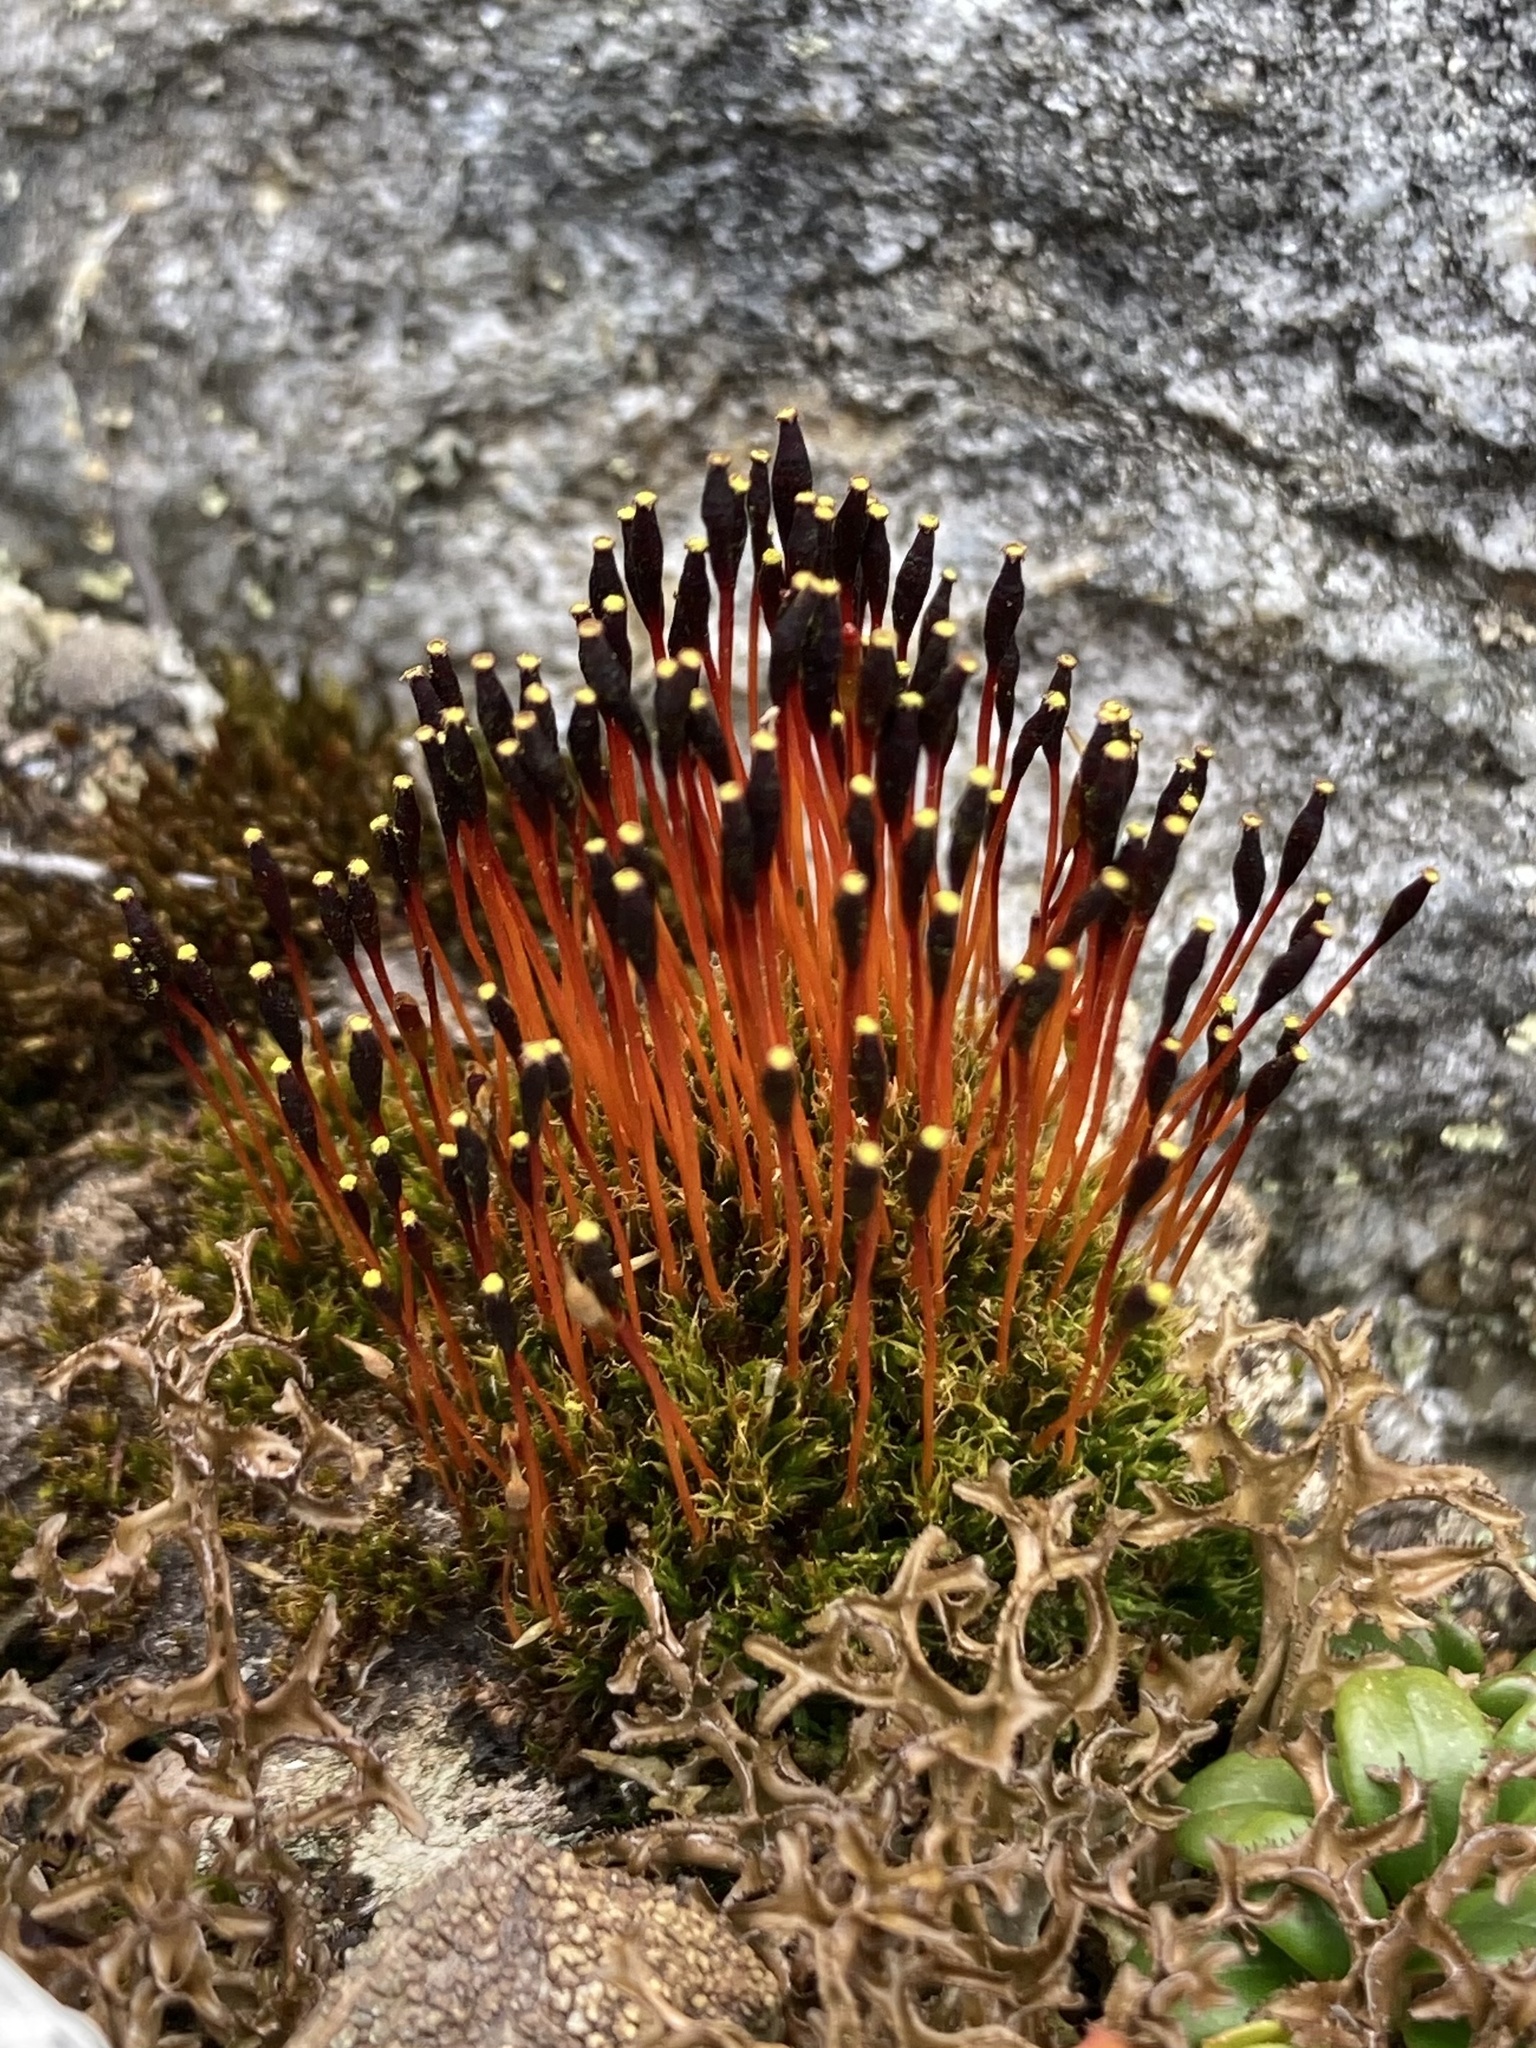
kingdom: Plantae
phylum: Bryophyta
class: Bryopsida
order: Splachnales
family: Splachnaceae
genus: Tetraplodon
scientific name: Tetraplodon mnioides
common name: Entire-leaved nitrogen moss
